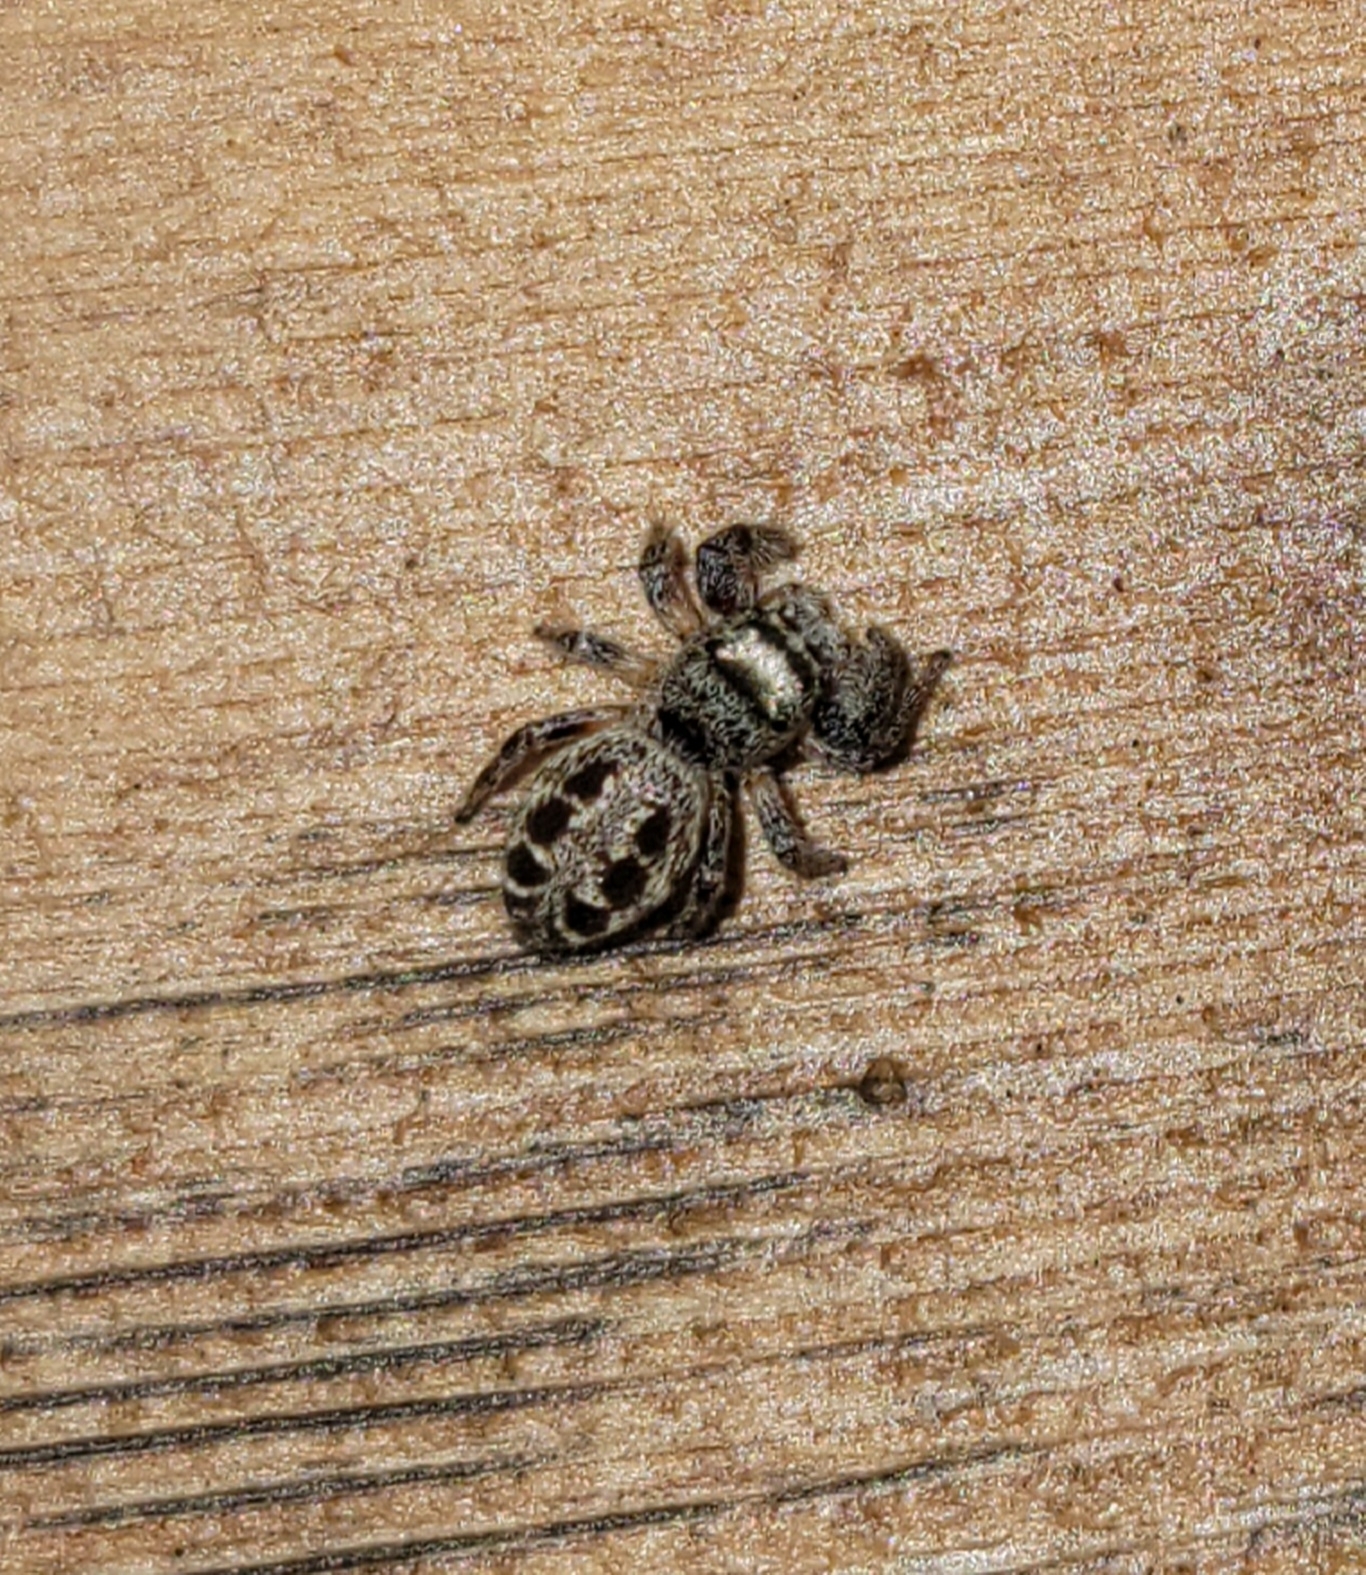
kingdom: Animalia
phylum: Arthropoda
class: Arachnida
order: Araneae
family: Salticidae
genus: Eris
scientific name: Eris militaris
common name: Bronze jumper
